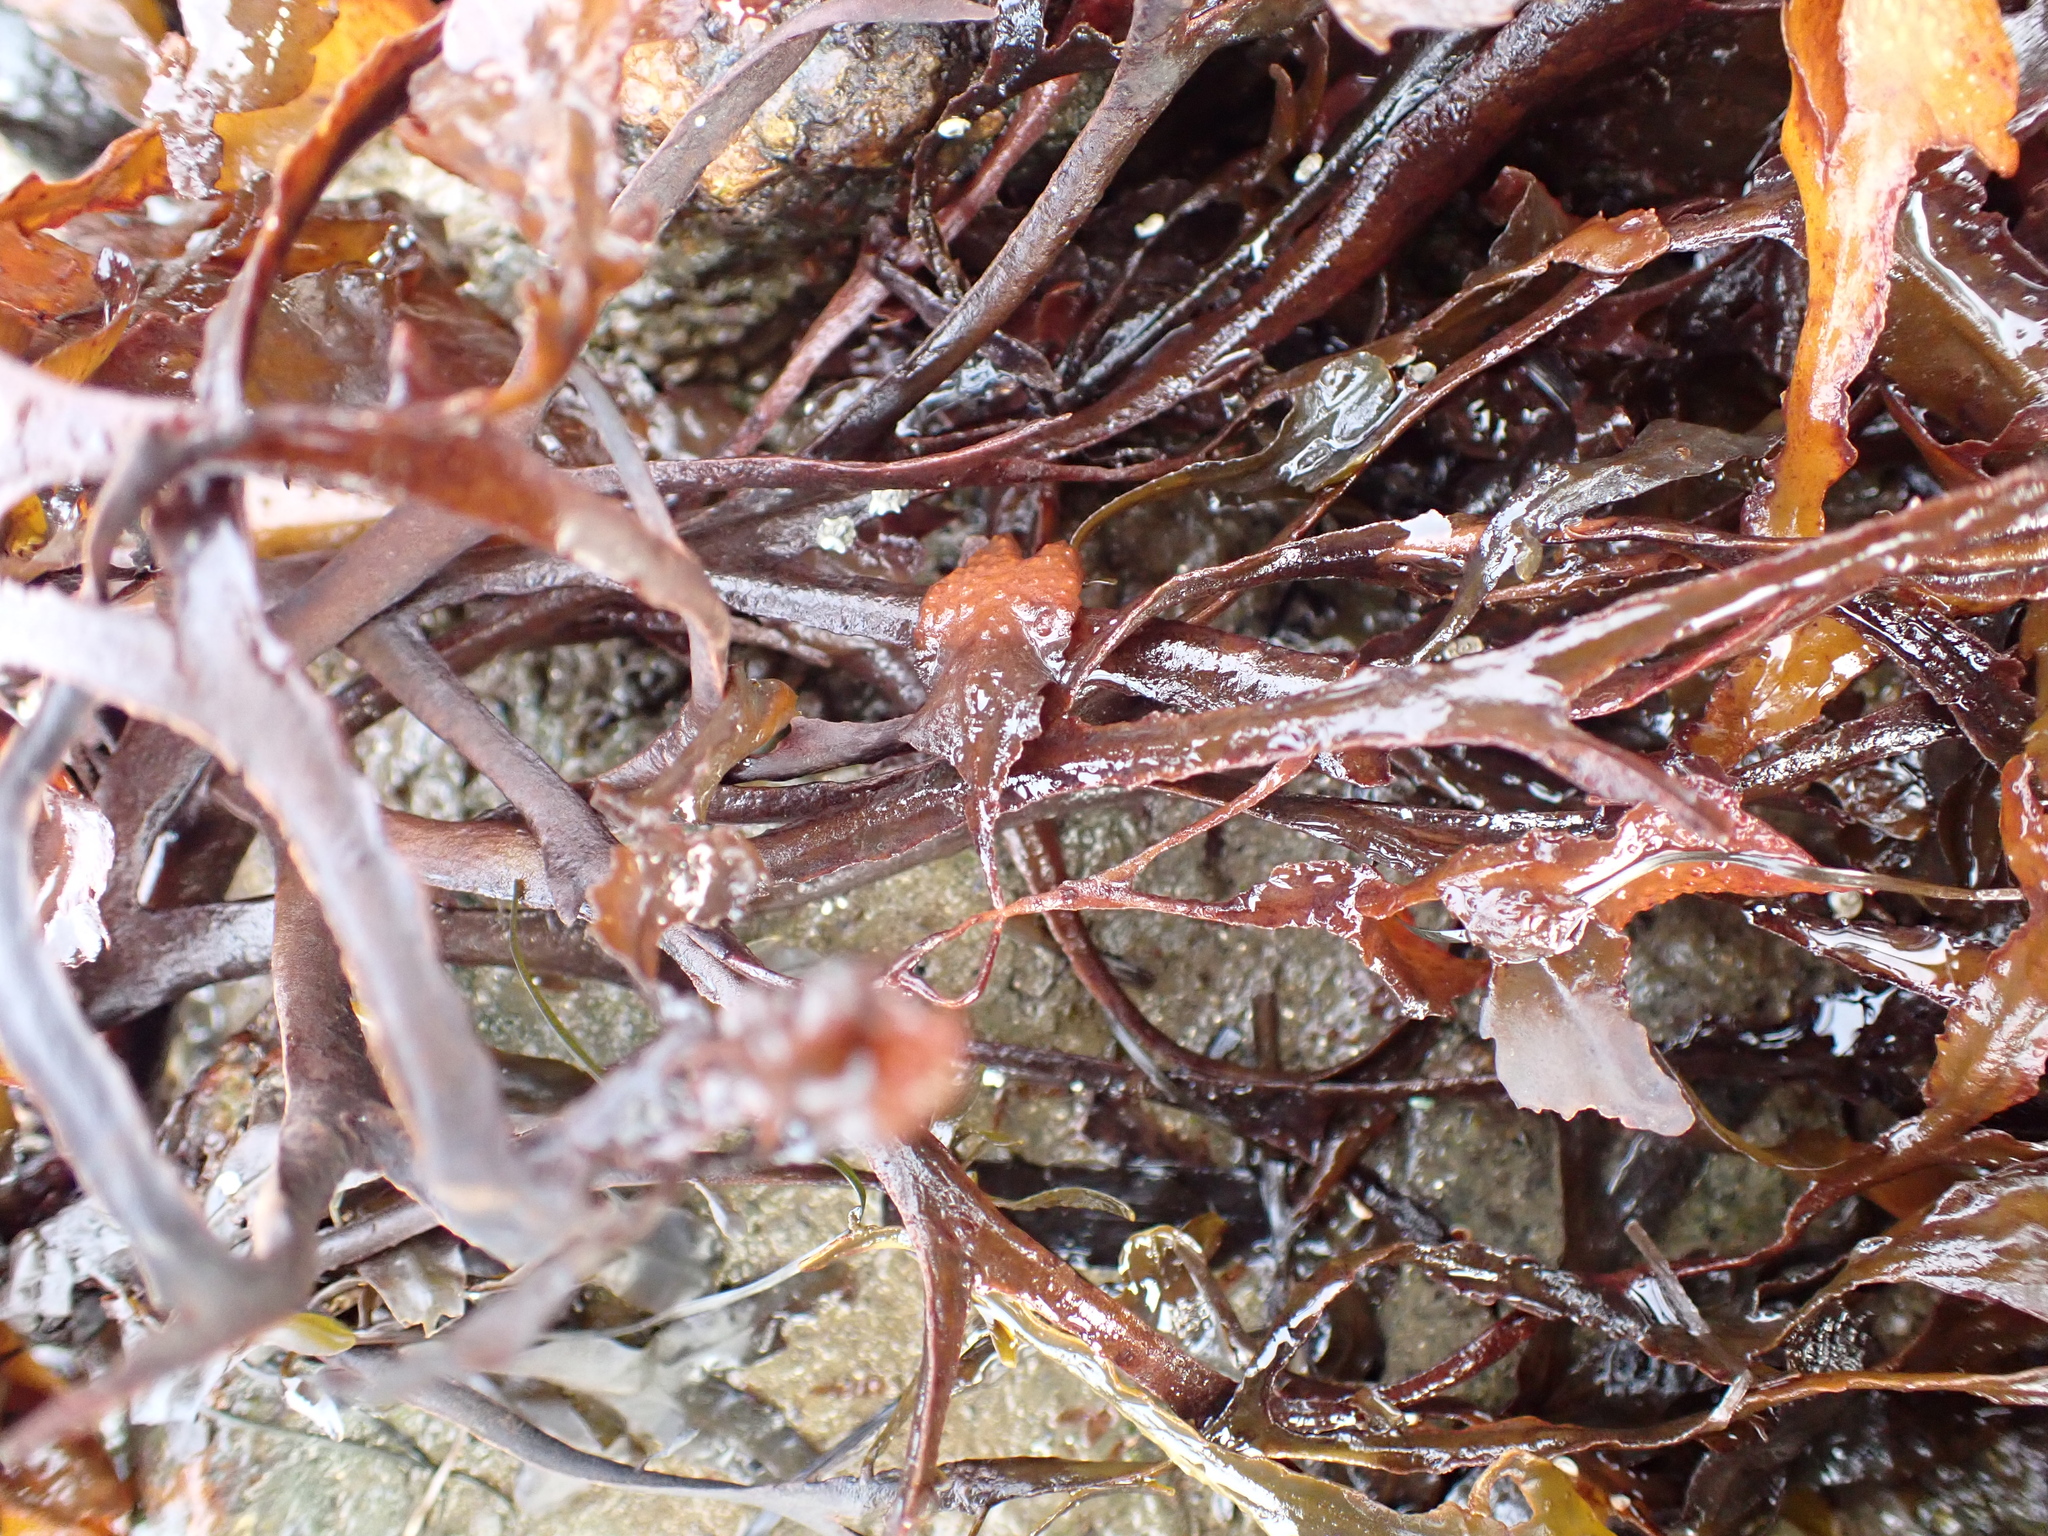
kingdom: Chromista
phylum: Ochrophyta
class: Phaeophyceae
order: Fucales
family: Fucaceae
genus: Fucus
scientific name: Fucus serratus
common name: Toothed wrack
